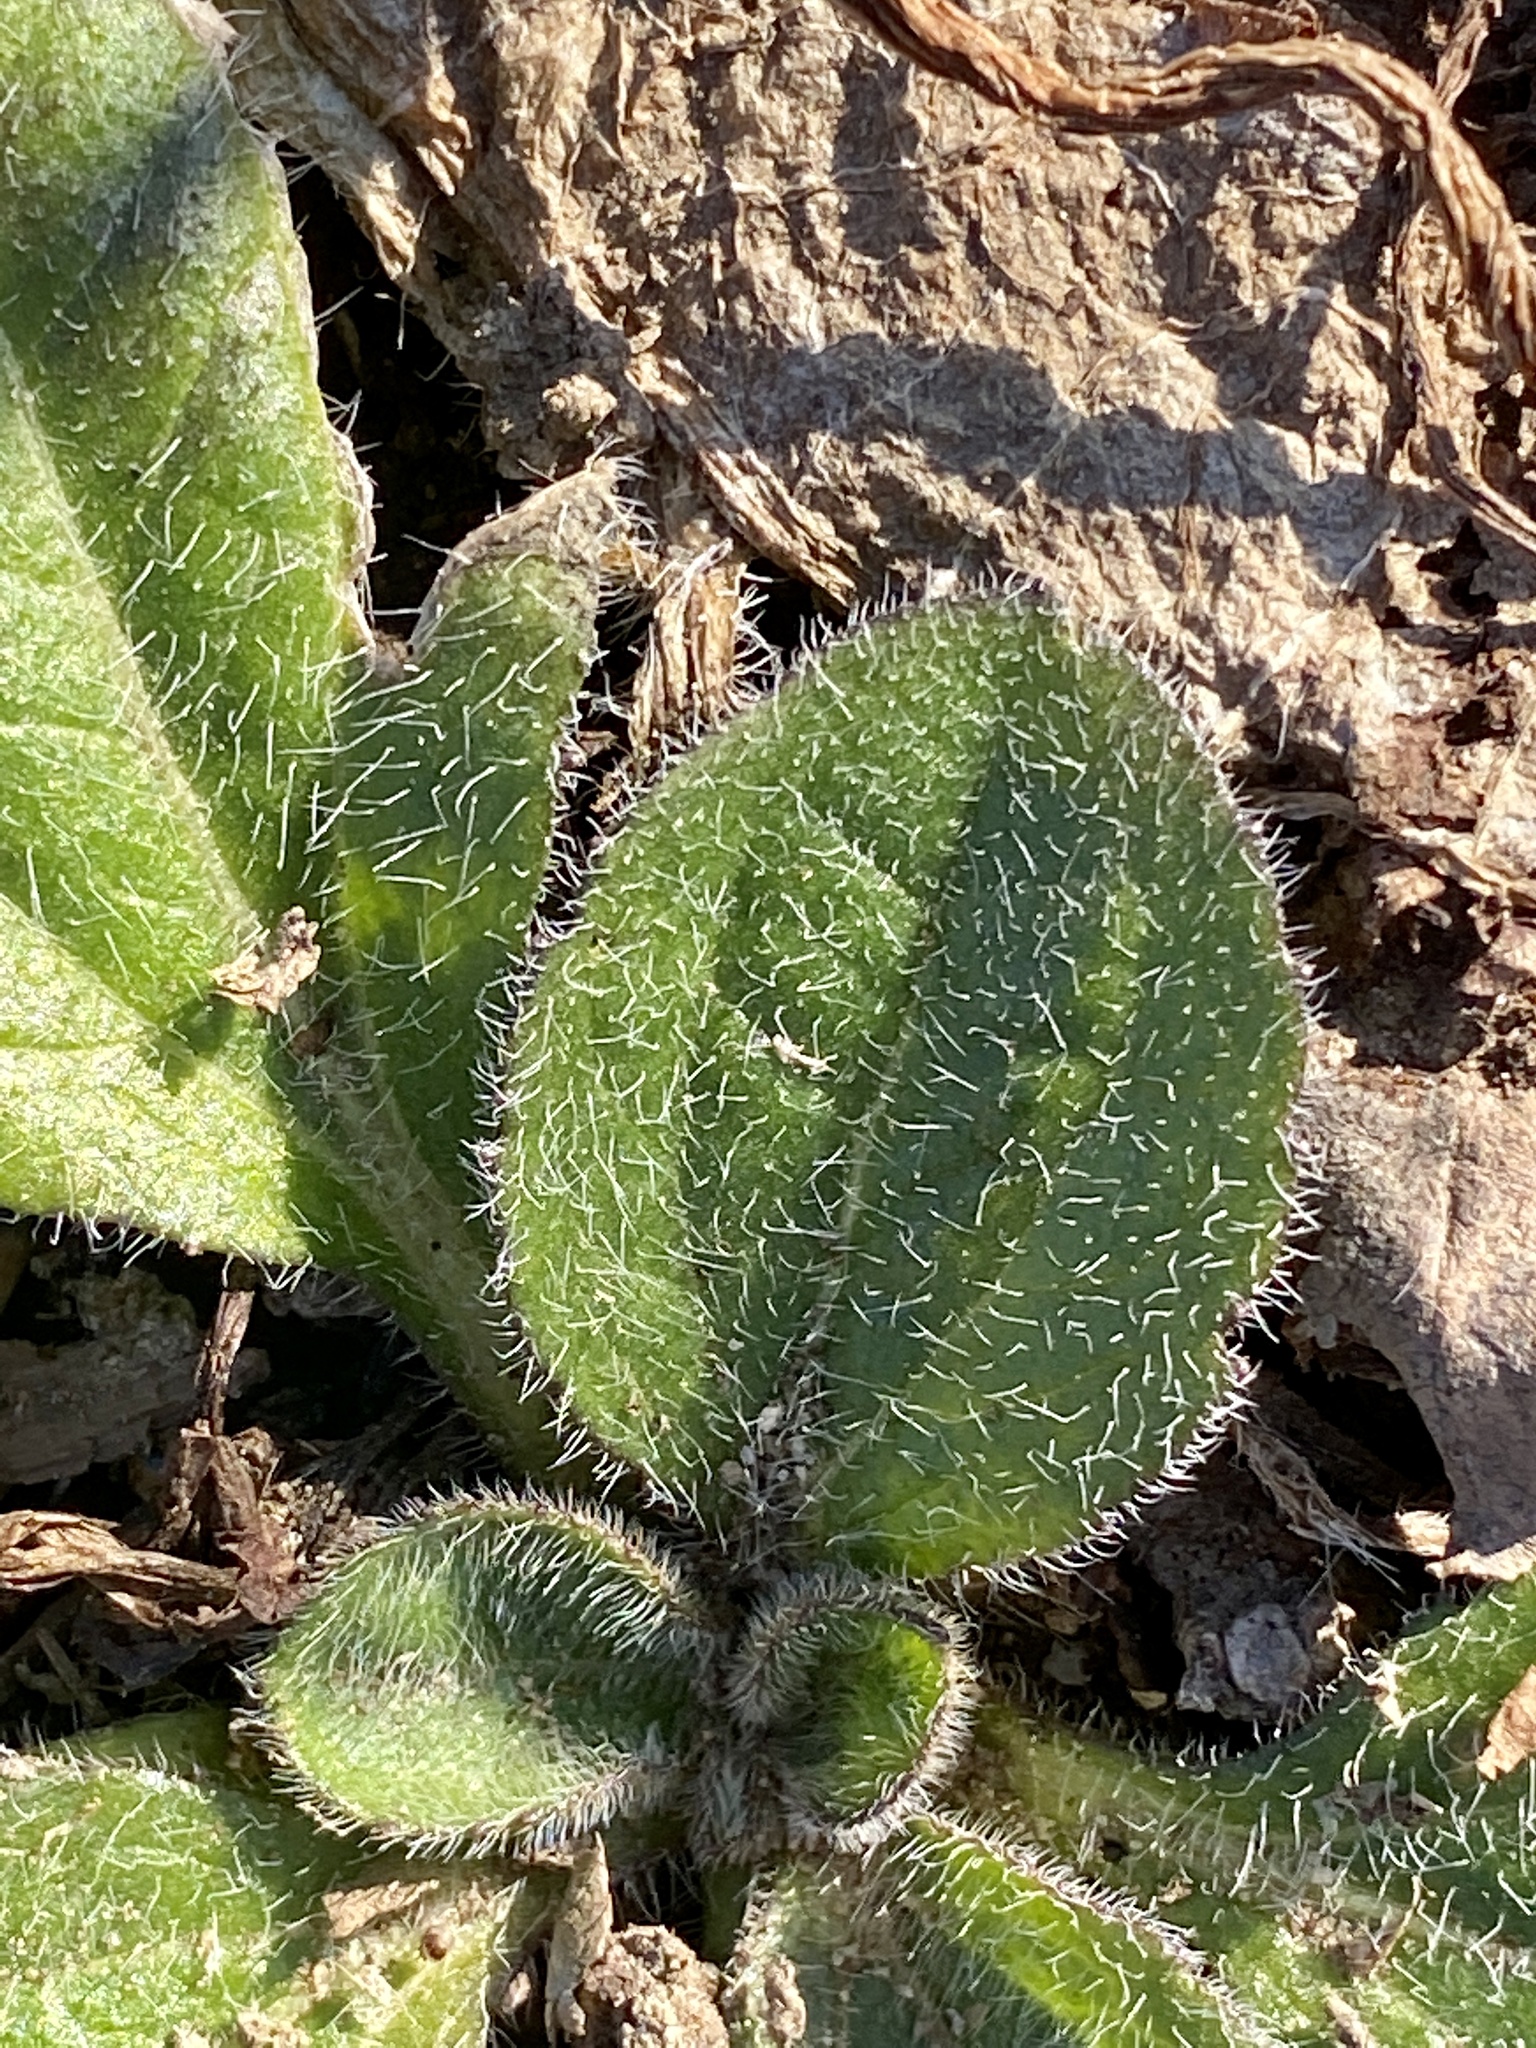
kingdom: Plantae
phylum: Tracheophyta
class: Magnoliopsida
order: Asterales
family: Asteraceae
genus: Rudbeckia
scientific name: Rudbeckia hirta
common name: Black-eyed-susan
